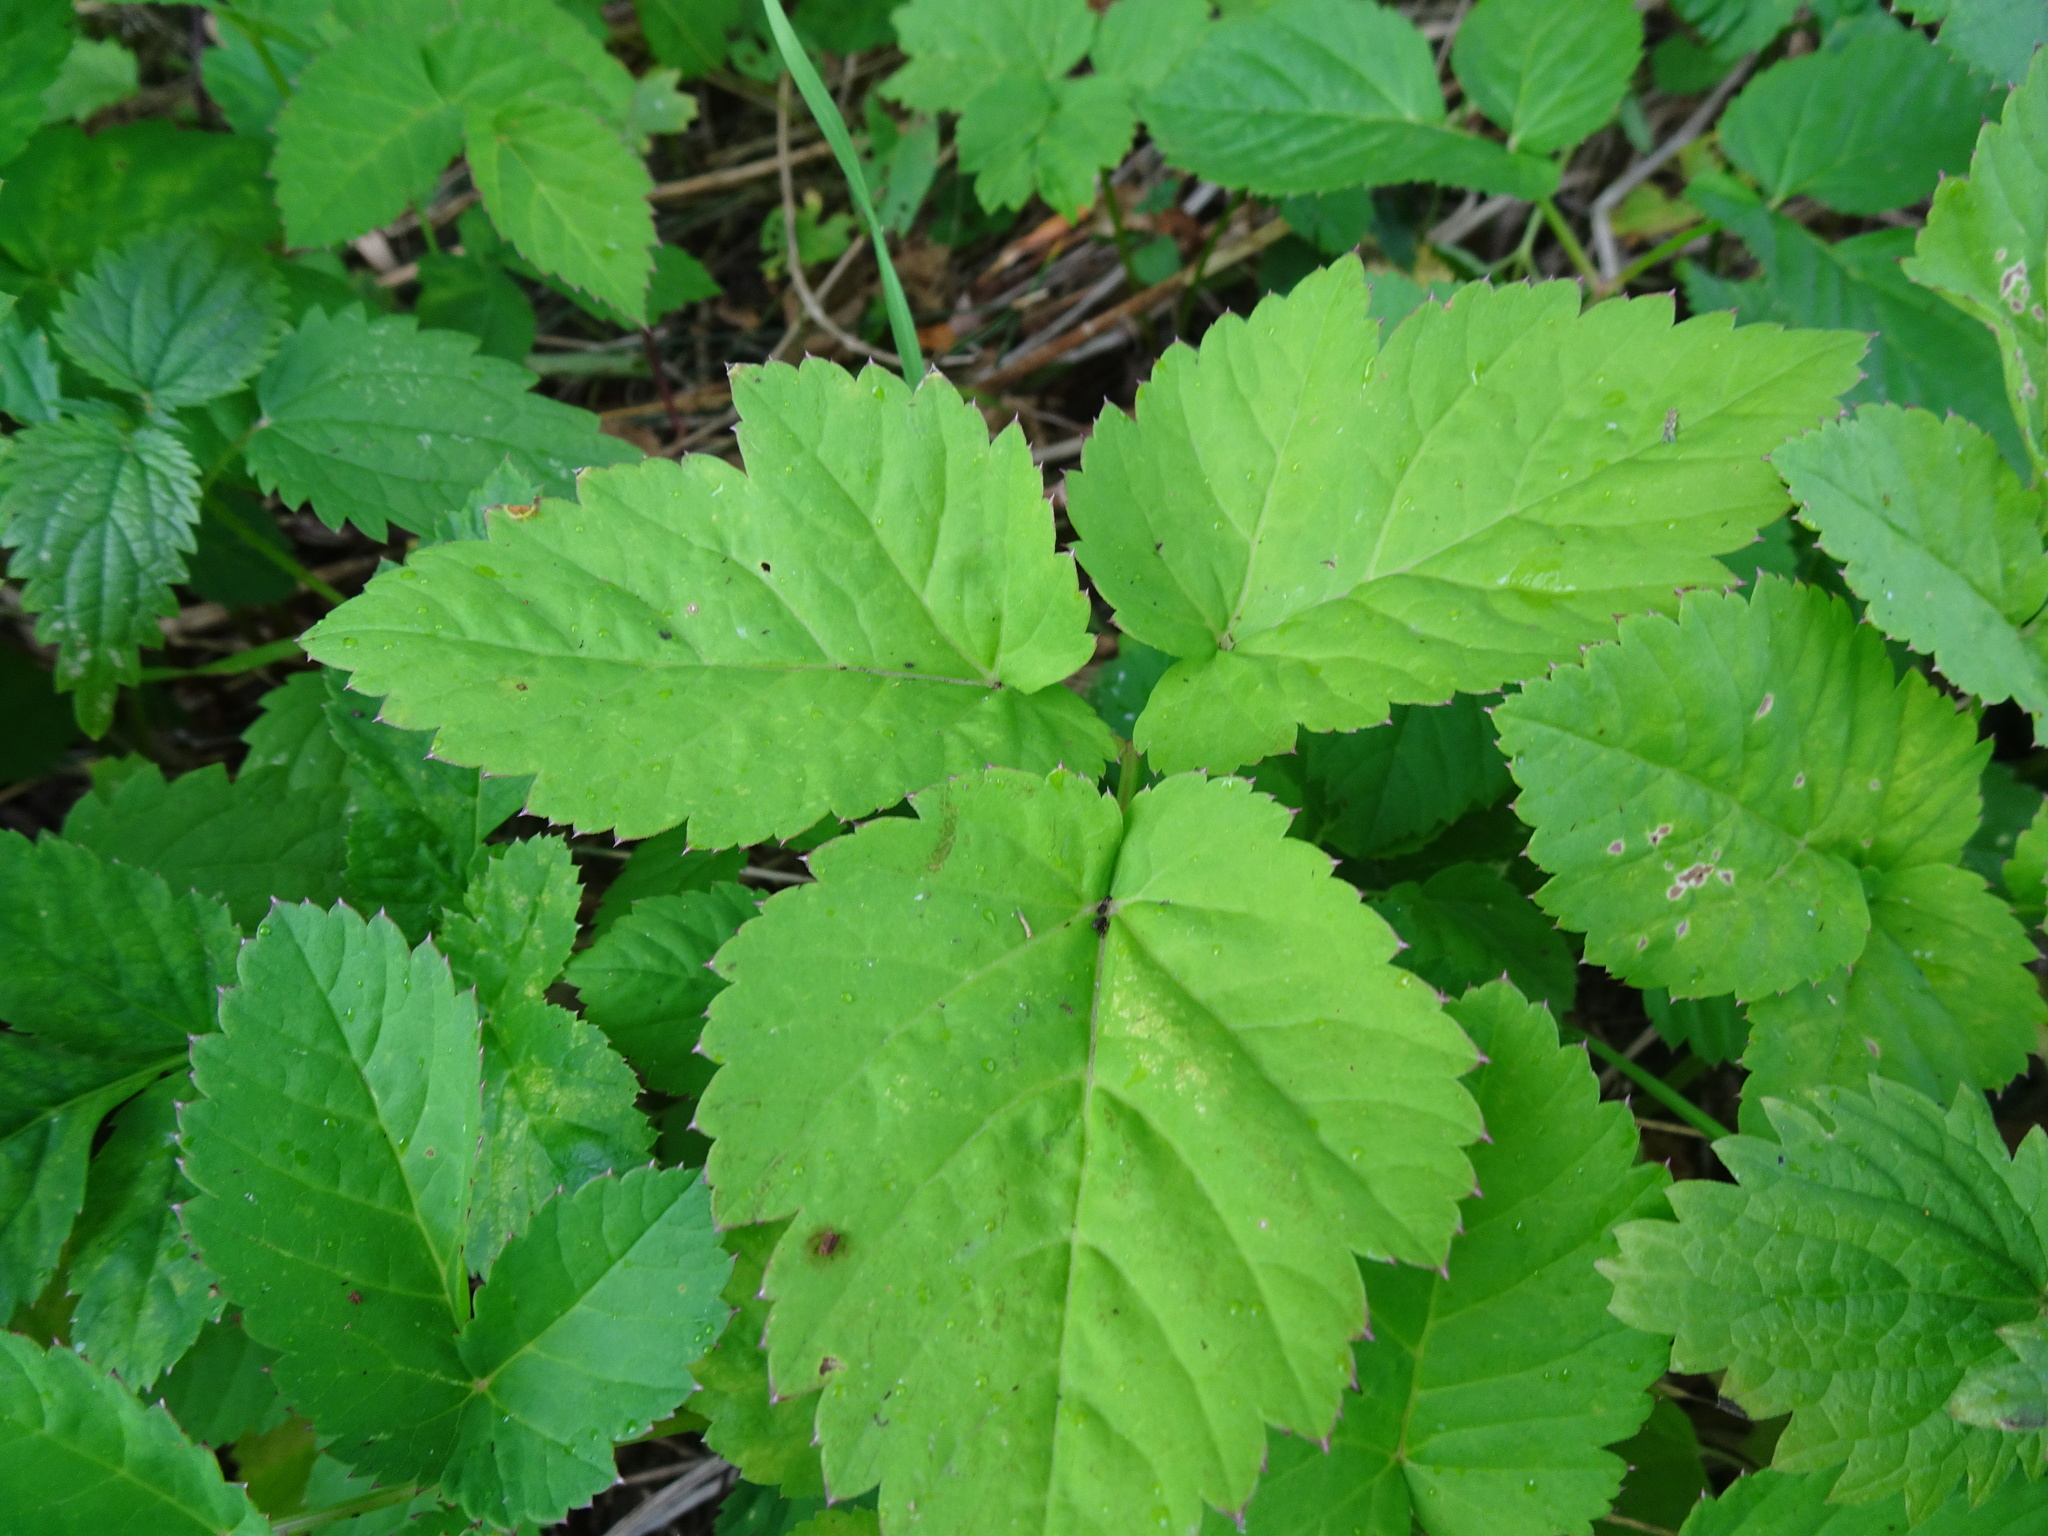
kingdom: Plantae
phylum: Tracheophyta
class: Magnoliopsida
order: Apiales
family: Apiaceae
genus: Aegopodium
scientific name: Aegopodium podagraria
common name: Ground-elder
